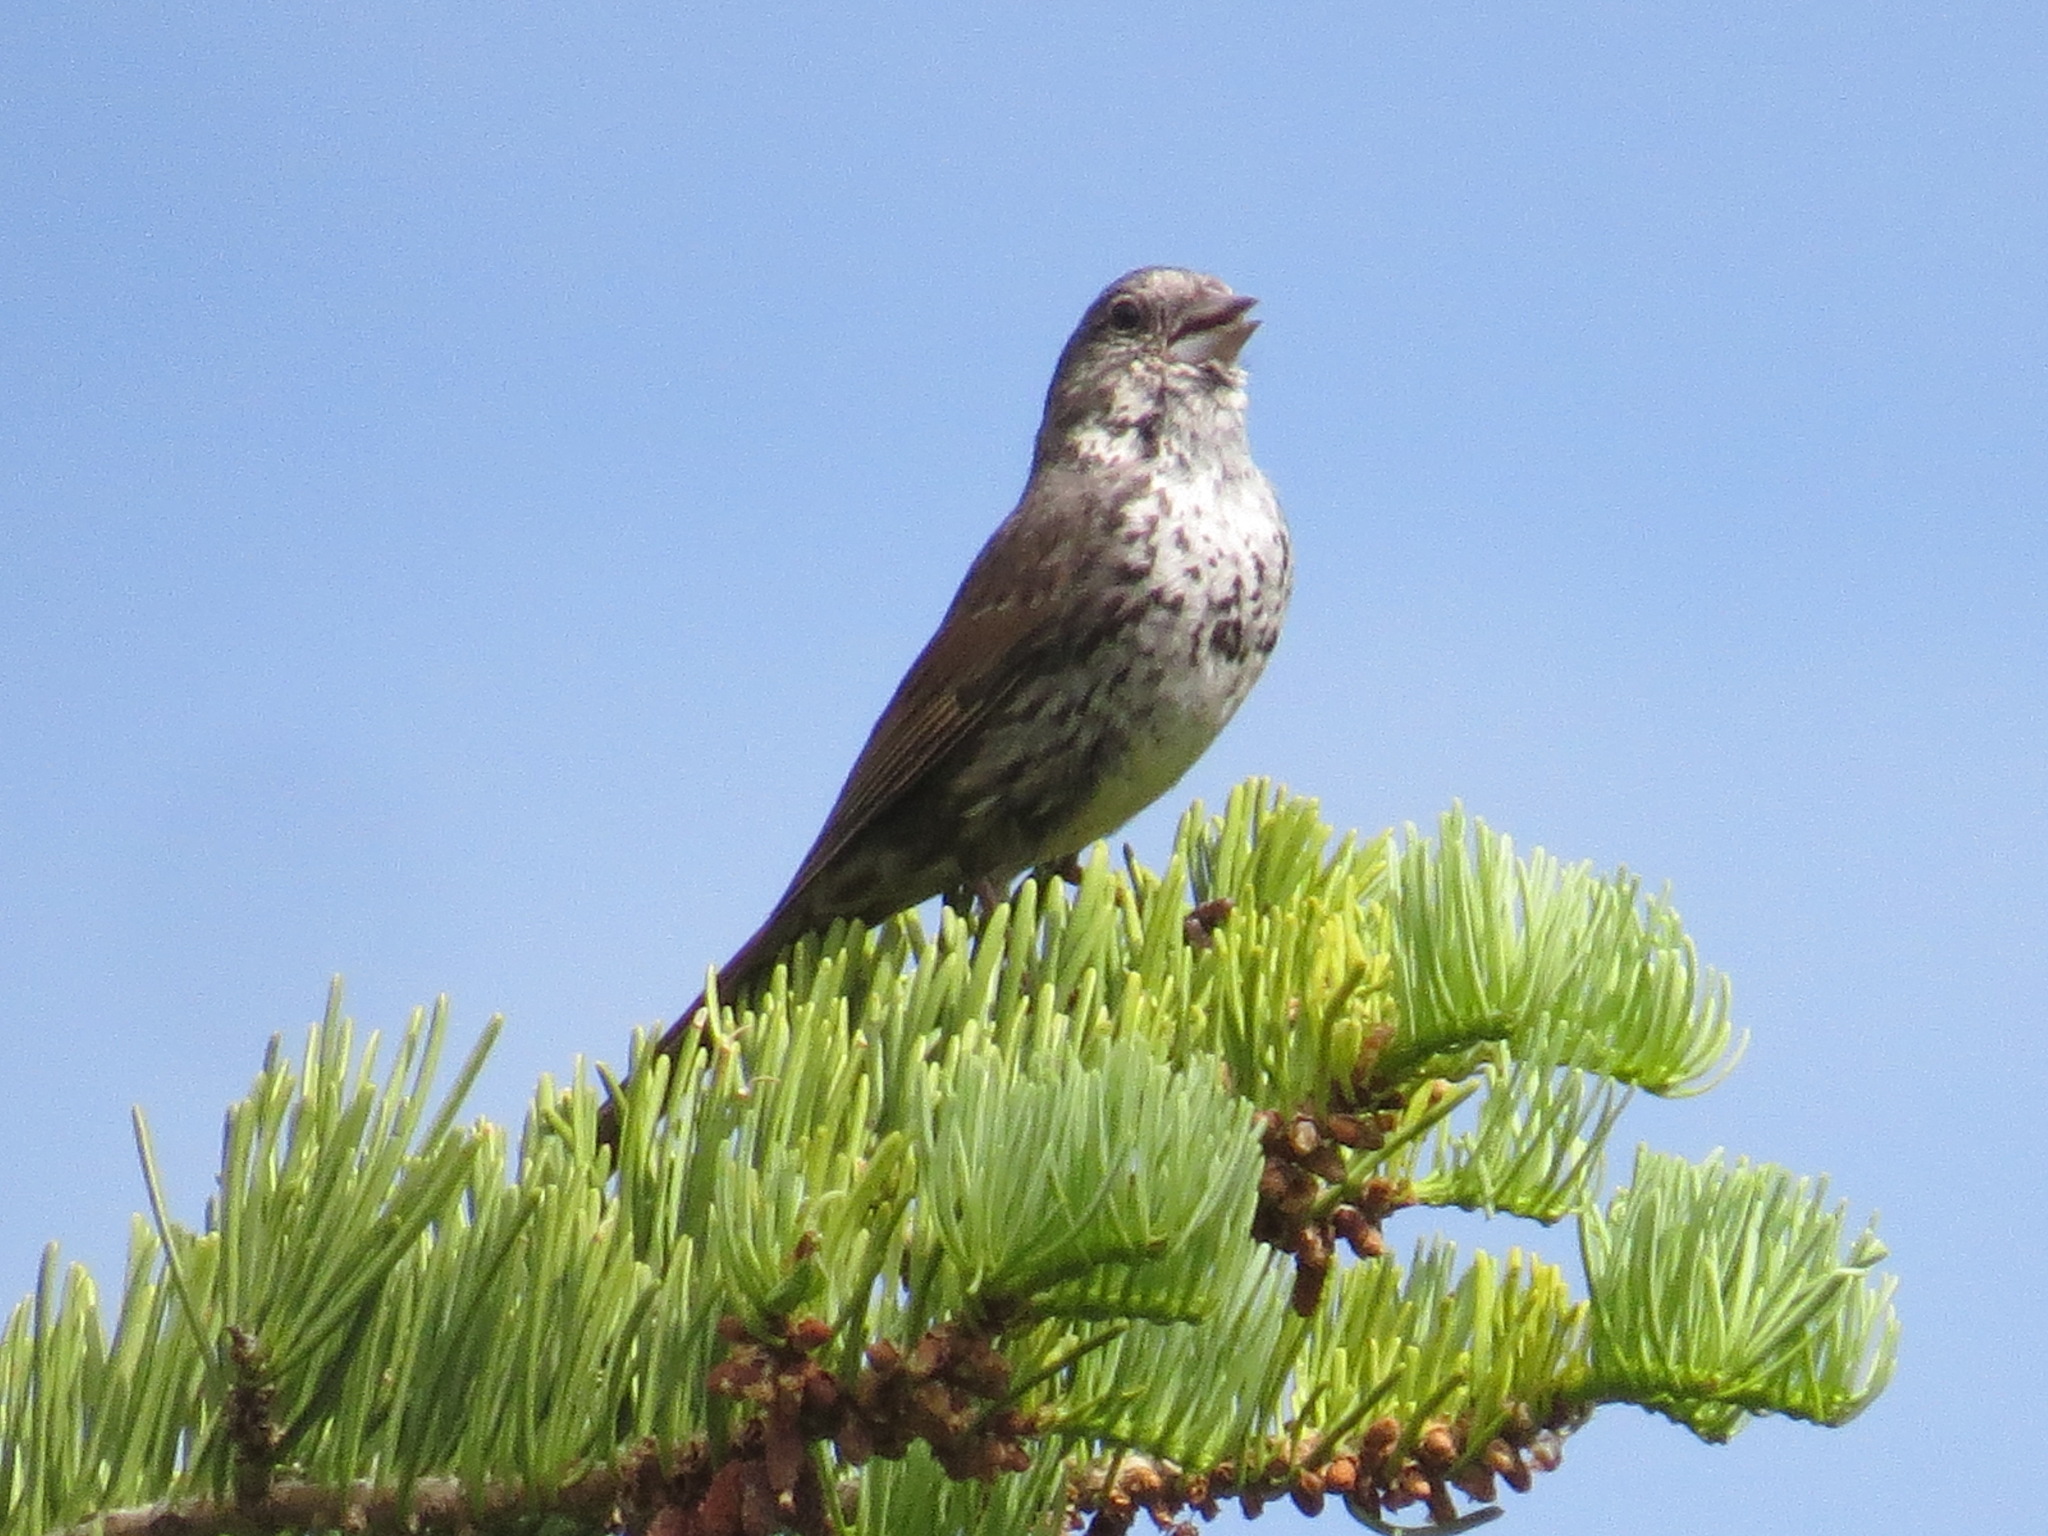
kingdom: Animalia
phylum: Chordata
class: Aves
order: Passeriformes
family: Passerellidae
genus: Passerella
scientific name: Passerella iliaca
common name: Fox sparrow
